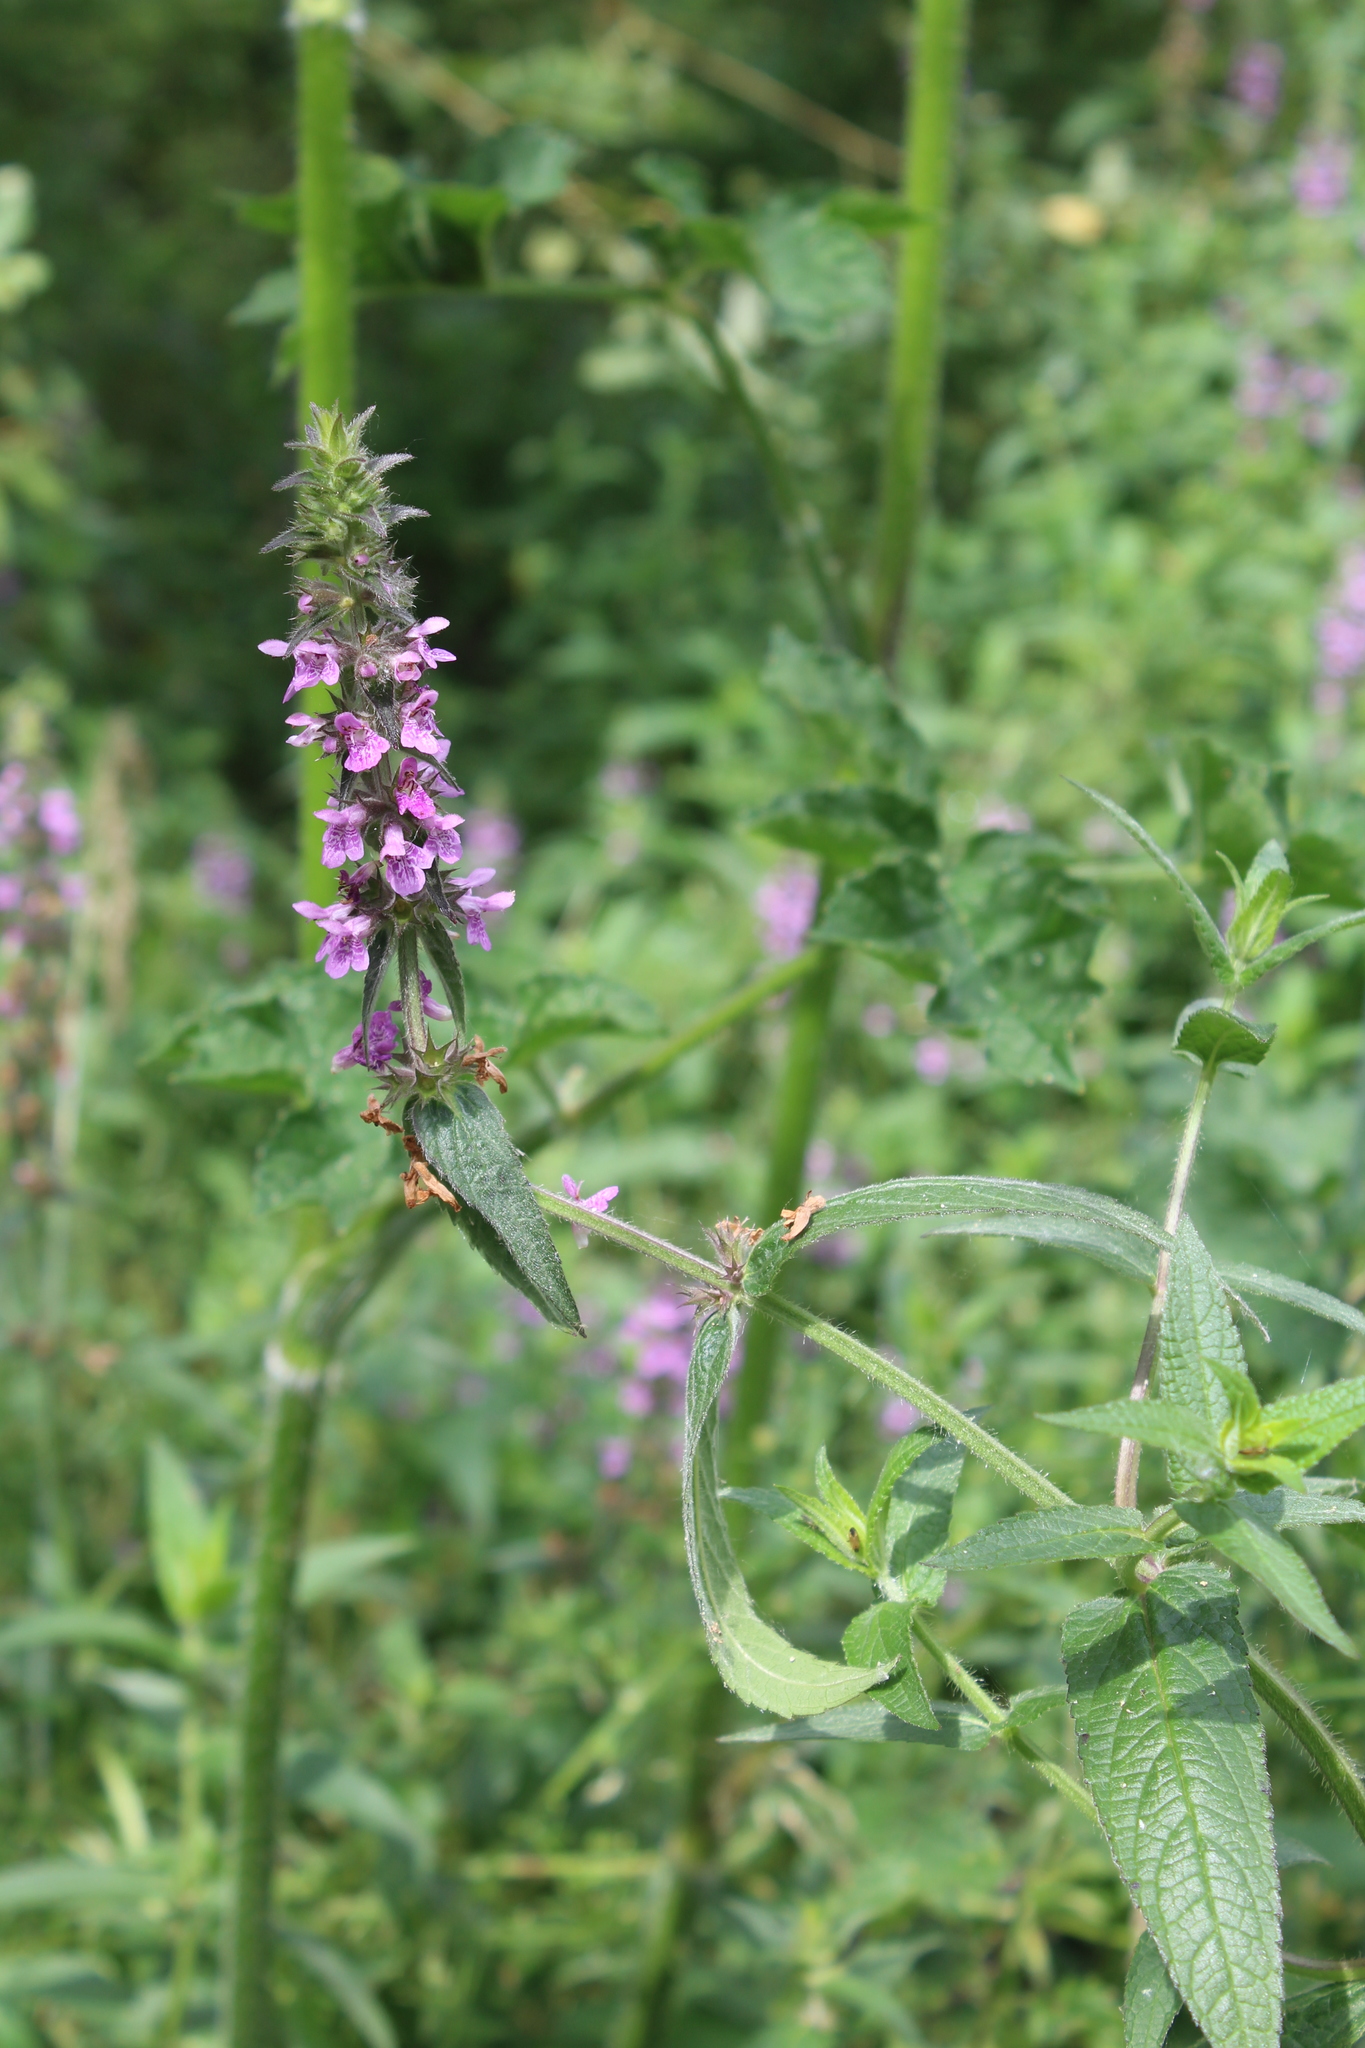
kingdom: Plantae
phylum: Tracheophyta
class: Magnoliopsida
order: Lamiales
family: Lamiaceae
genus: Stachys
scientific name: Stachys palustris
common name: Marsh woundwort
